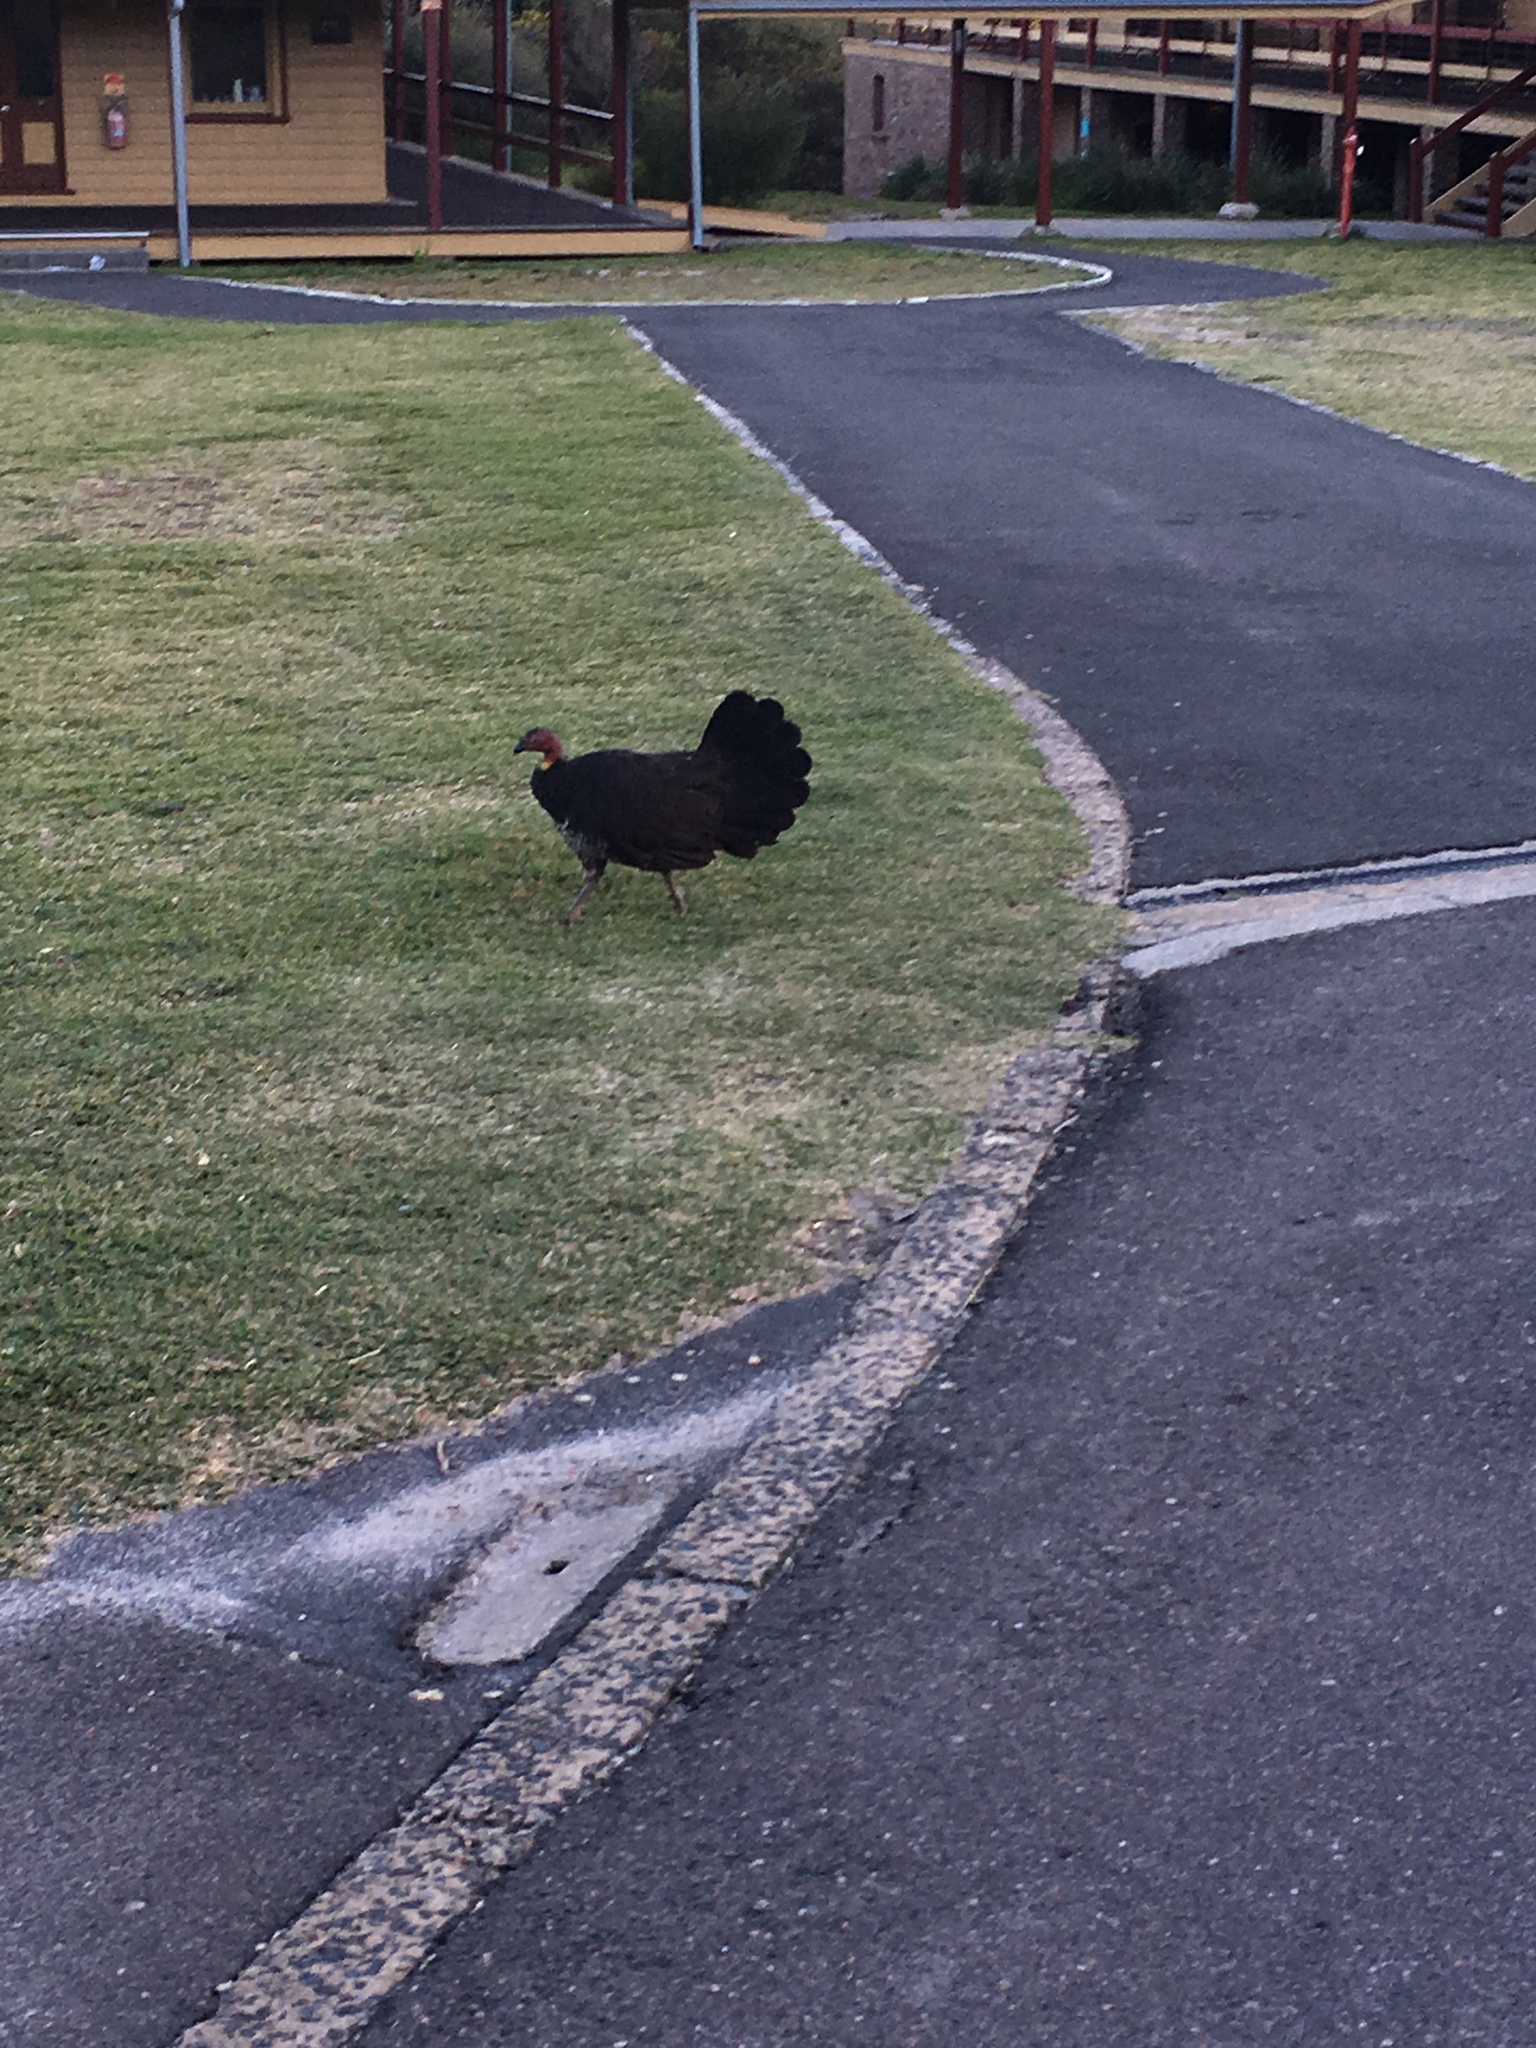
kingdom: Animalia
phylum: Chordata
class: Aves
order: Galliformes
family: Megapodiidae
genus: Alectura
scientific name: Alectura lathami
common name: Australian brushturkey
